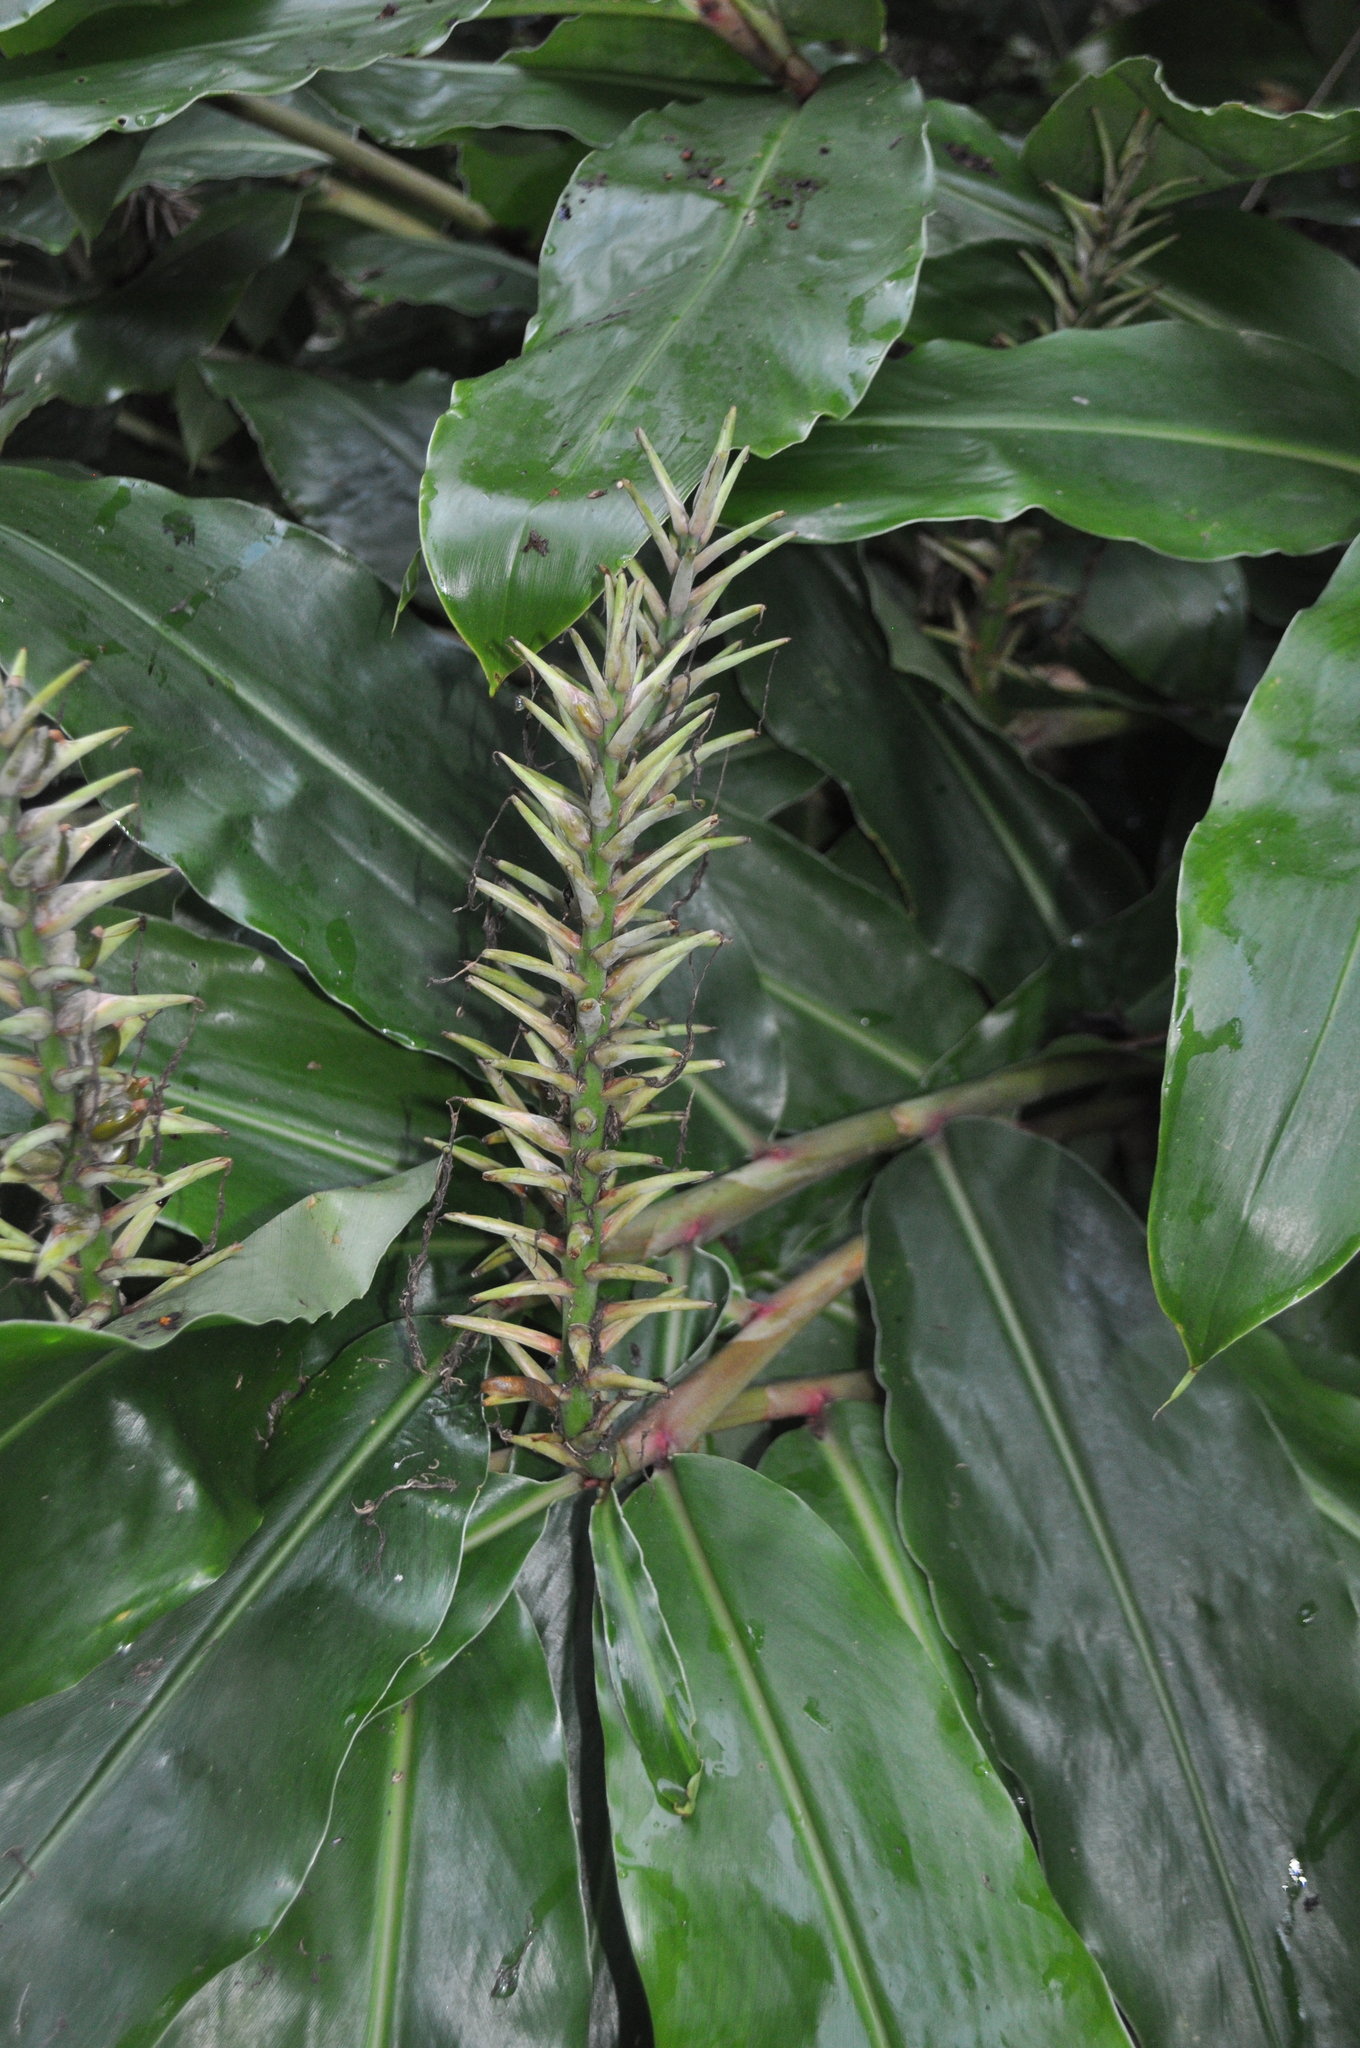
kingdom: Plantae
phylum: Tracheophyta
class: Liliopsida
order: Zingiberales
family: Zingiberaceae
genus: Hedychium
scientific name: Hedychium gardnerianum
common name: Himalayan ginger
